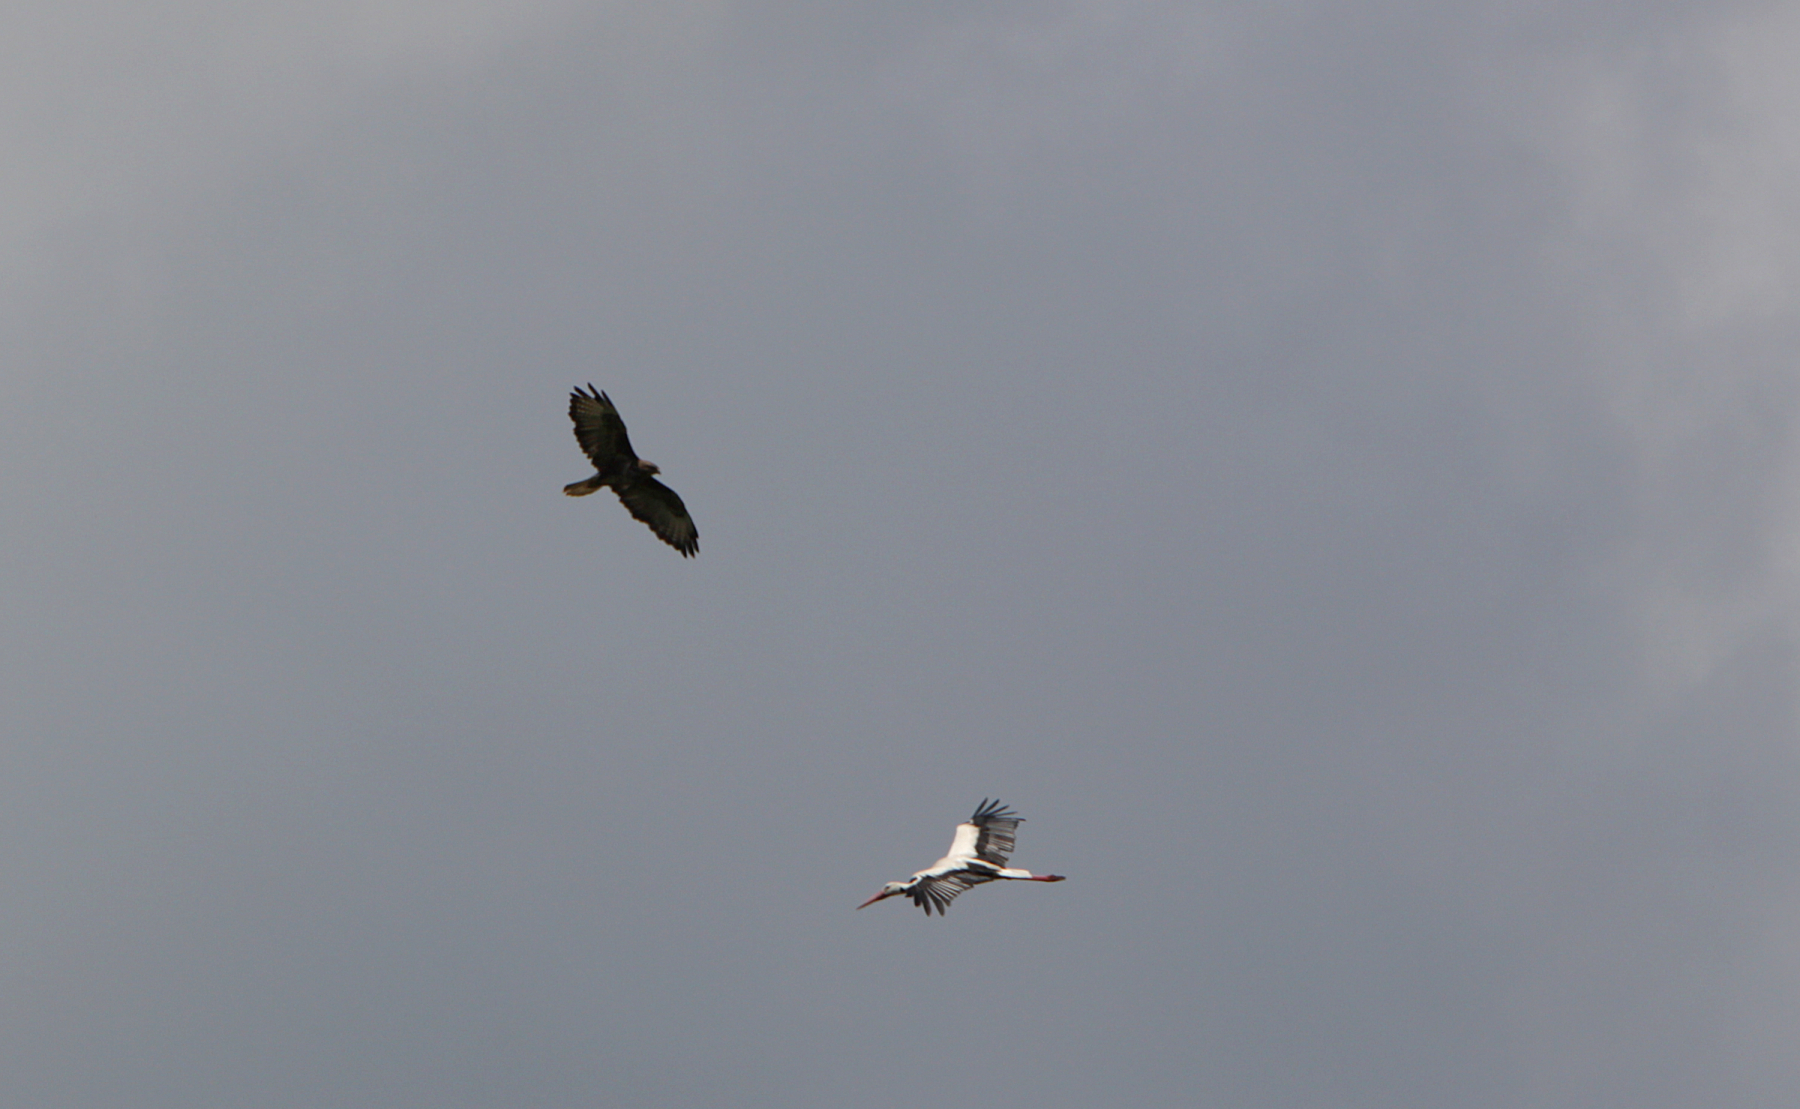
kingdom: Animalia
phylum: Chordata
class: Aves
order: Accipitriformes
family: Accipitridae
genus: Buteo
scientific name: Buteo buteo
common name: Common buzzard
